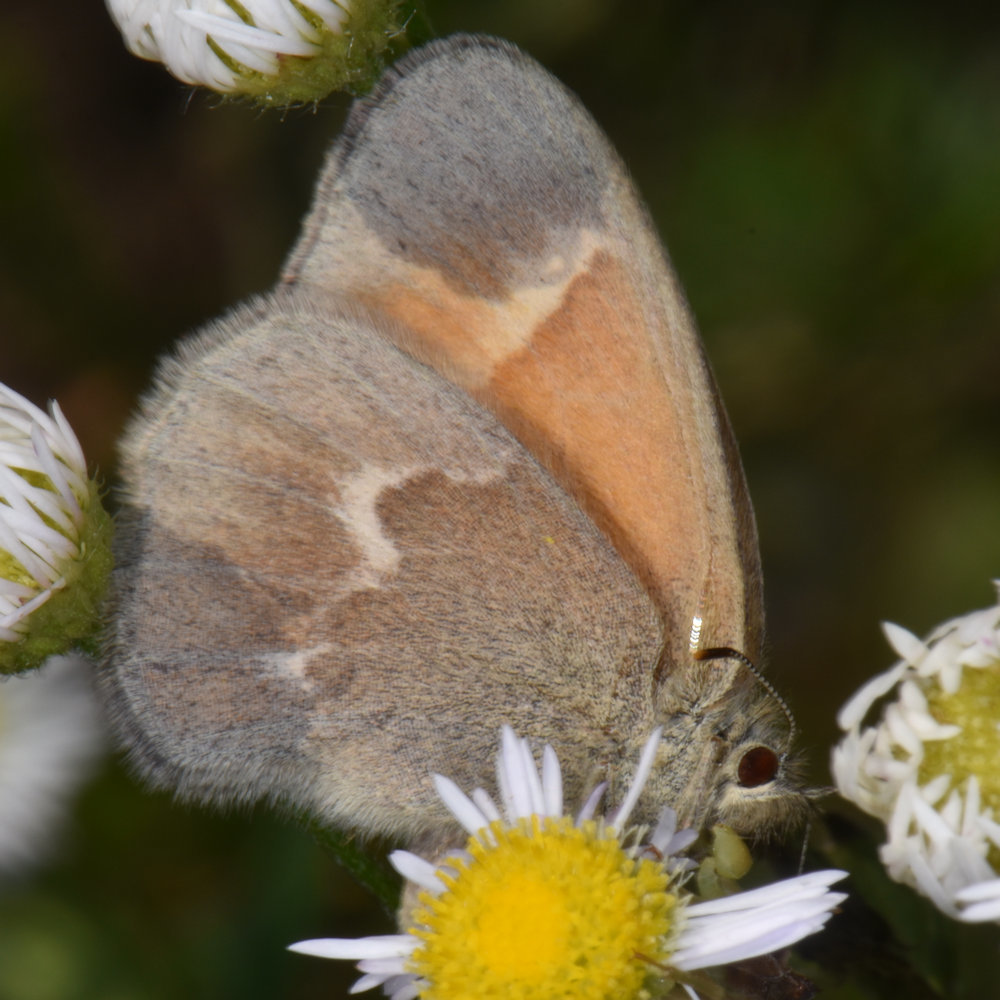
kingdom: Animalia
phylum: Arthropoda
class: Insecta
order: Lepidoptera
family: Nymphalidae
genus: Coenonympha
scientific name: Coenonympha california
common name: Common ringlet
